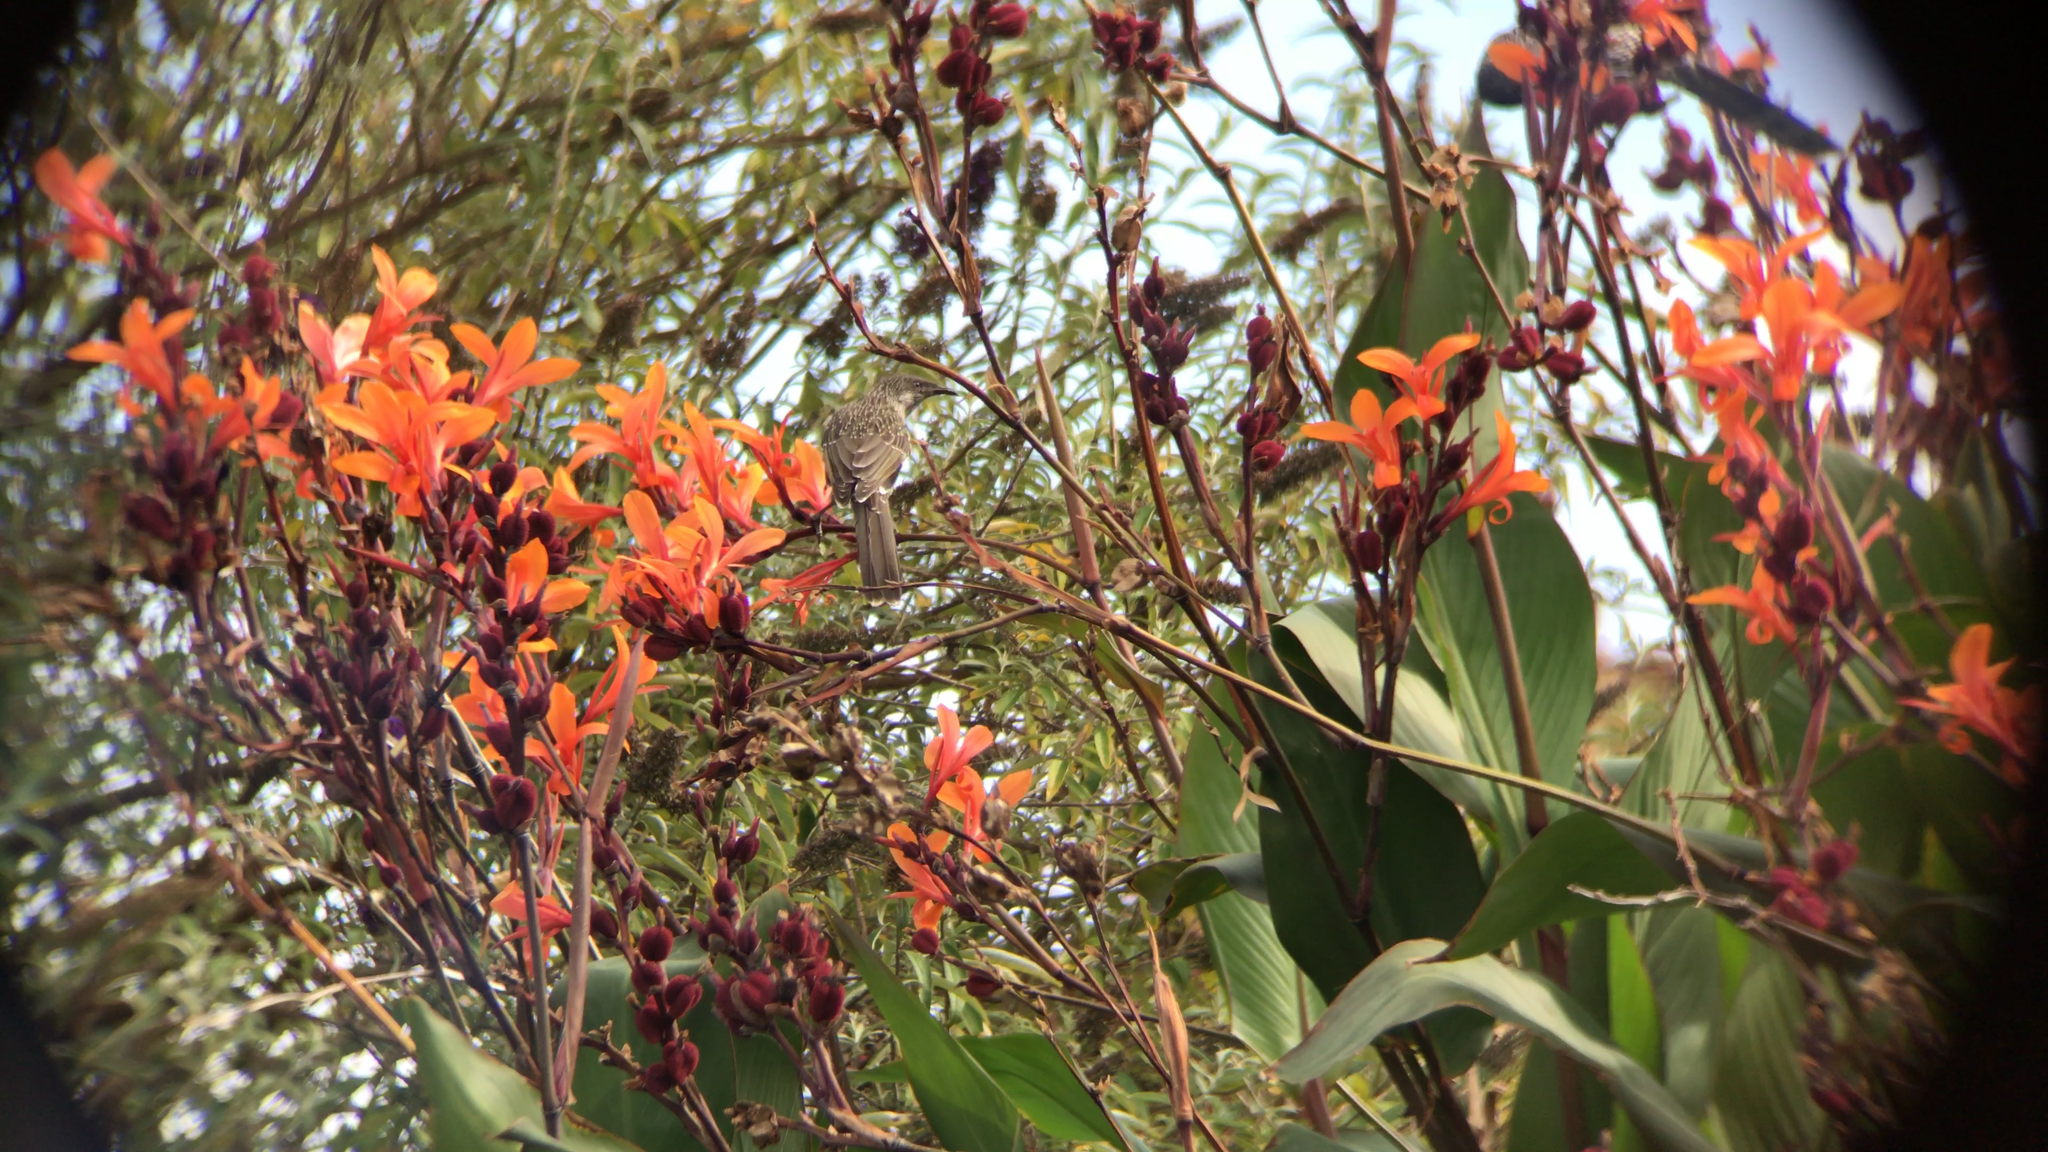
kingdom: Animalia
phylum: Chordata
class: Aves
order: Passeriformes
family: Meliphagidae
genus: Anthochaera
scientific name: Anthochaera chrysoptera
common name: Little wattlebird
